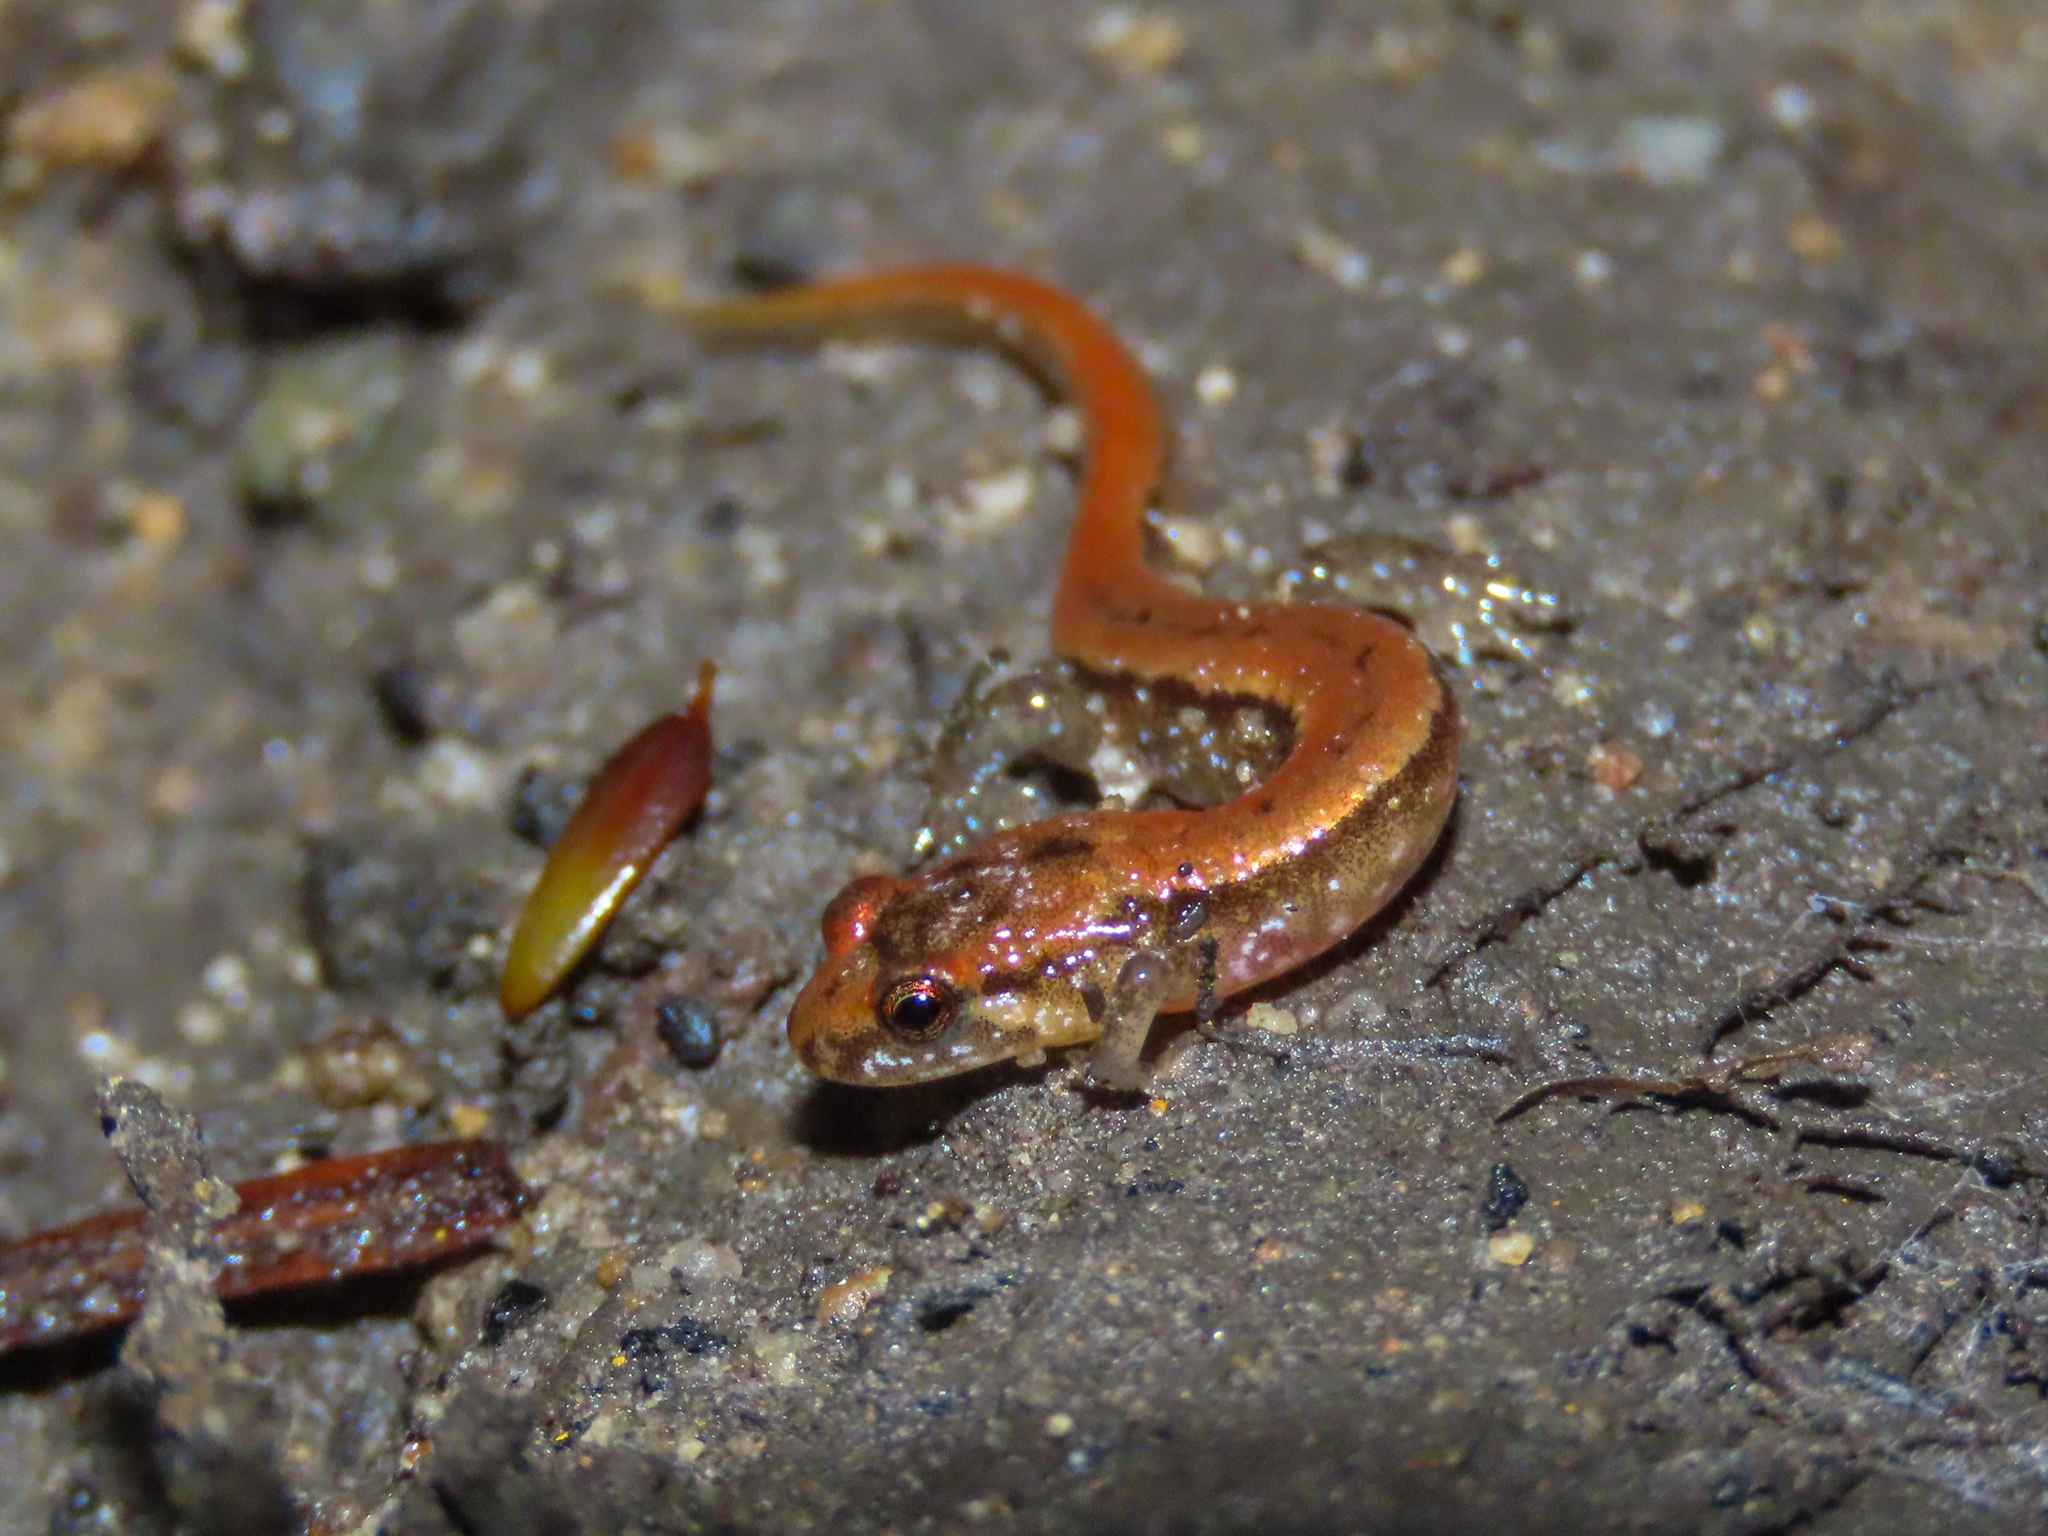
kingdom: Animalia
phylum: Chordata
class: Amphibia
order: Caudata
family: Plethodontidae
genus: Desmognathus
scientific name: Desmognathus ochrophaeus
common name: Allegheny mountain dusky salamander
